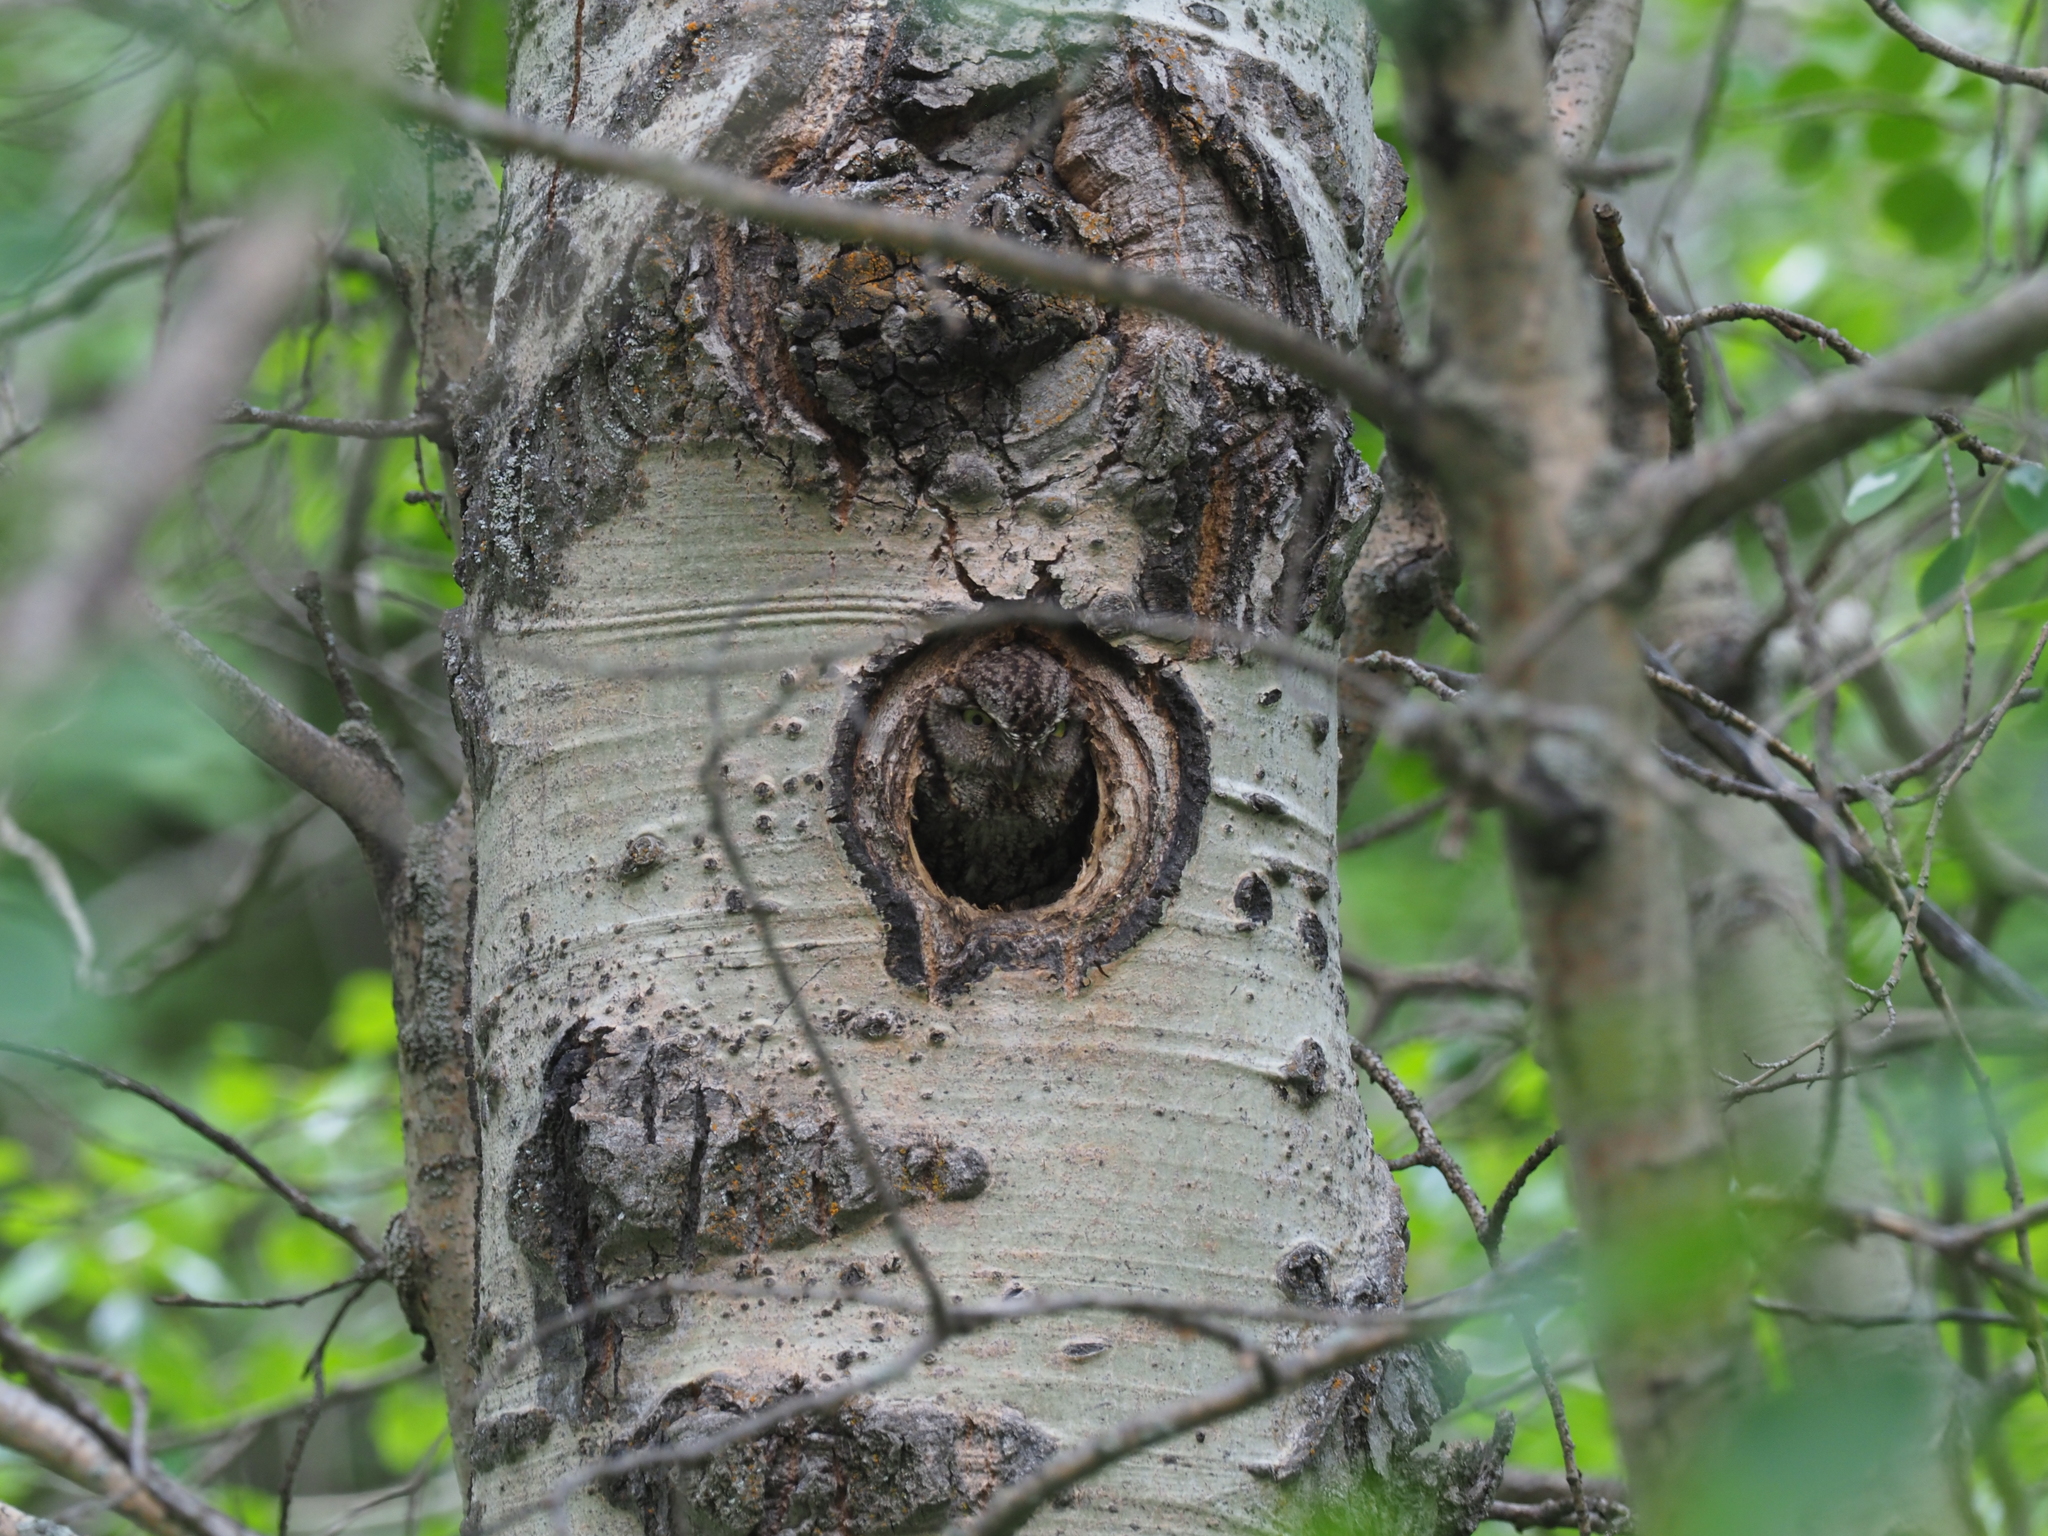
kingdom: Animalia
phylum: Chordata
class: Aves
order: Strigiformes
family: Strigidae
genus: Megascops
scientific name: Megascops kennicottii
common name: Western screech-owl
